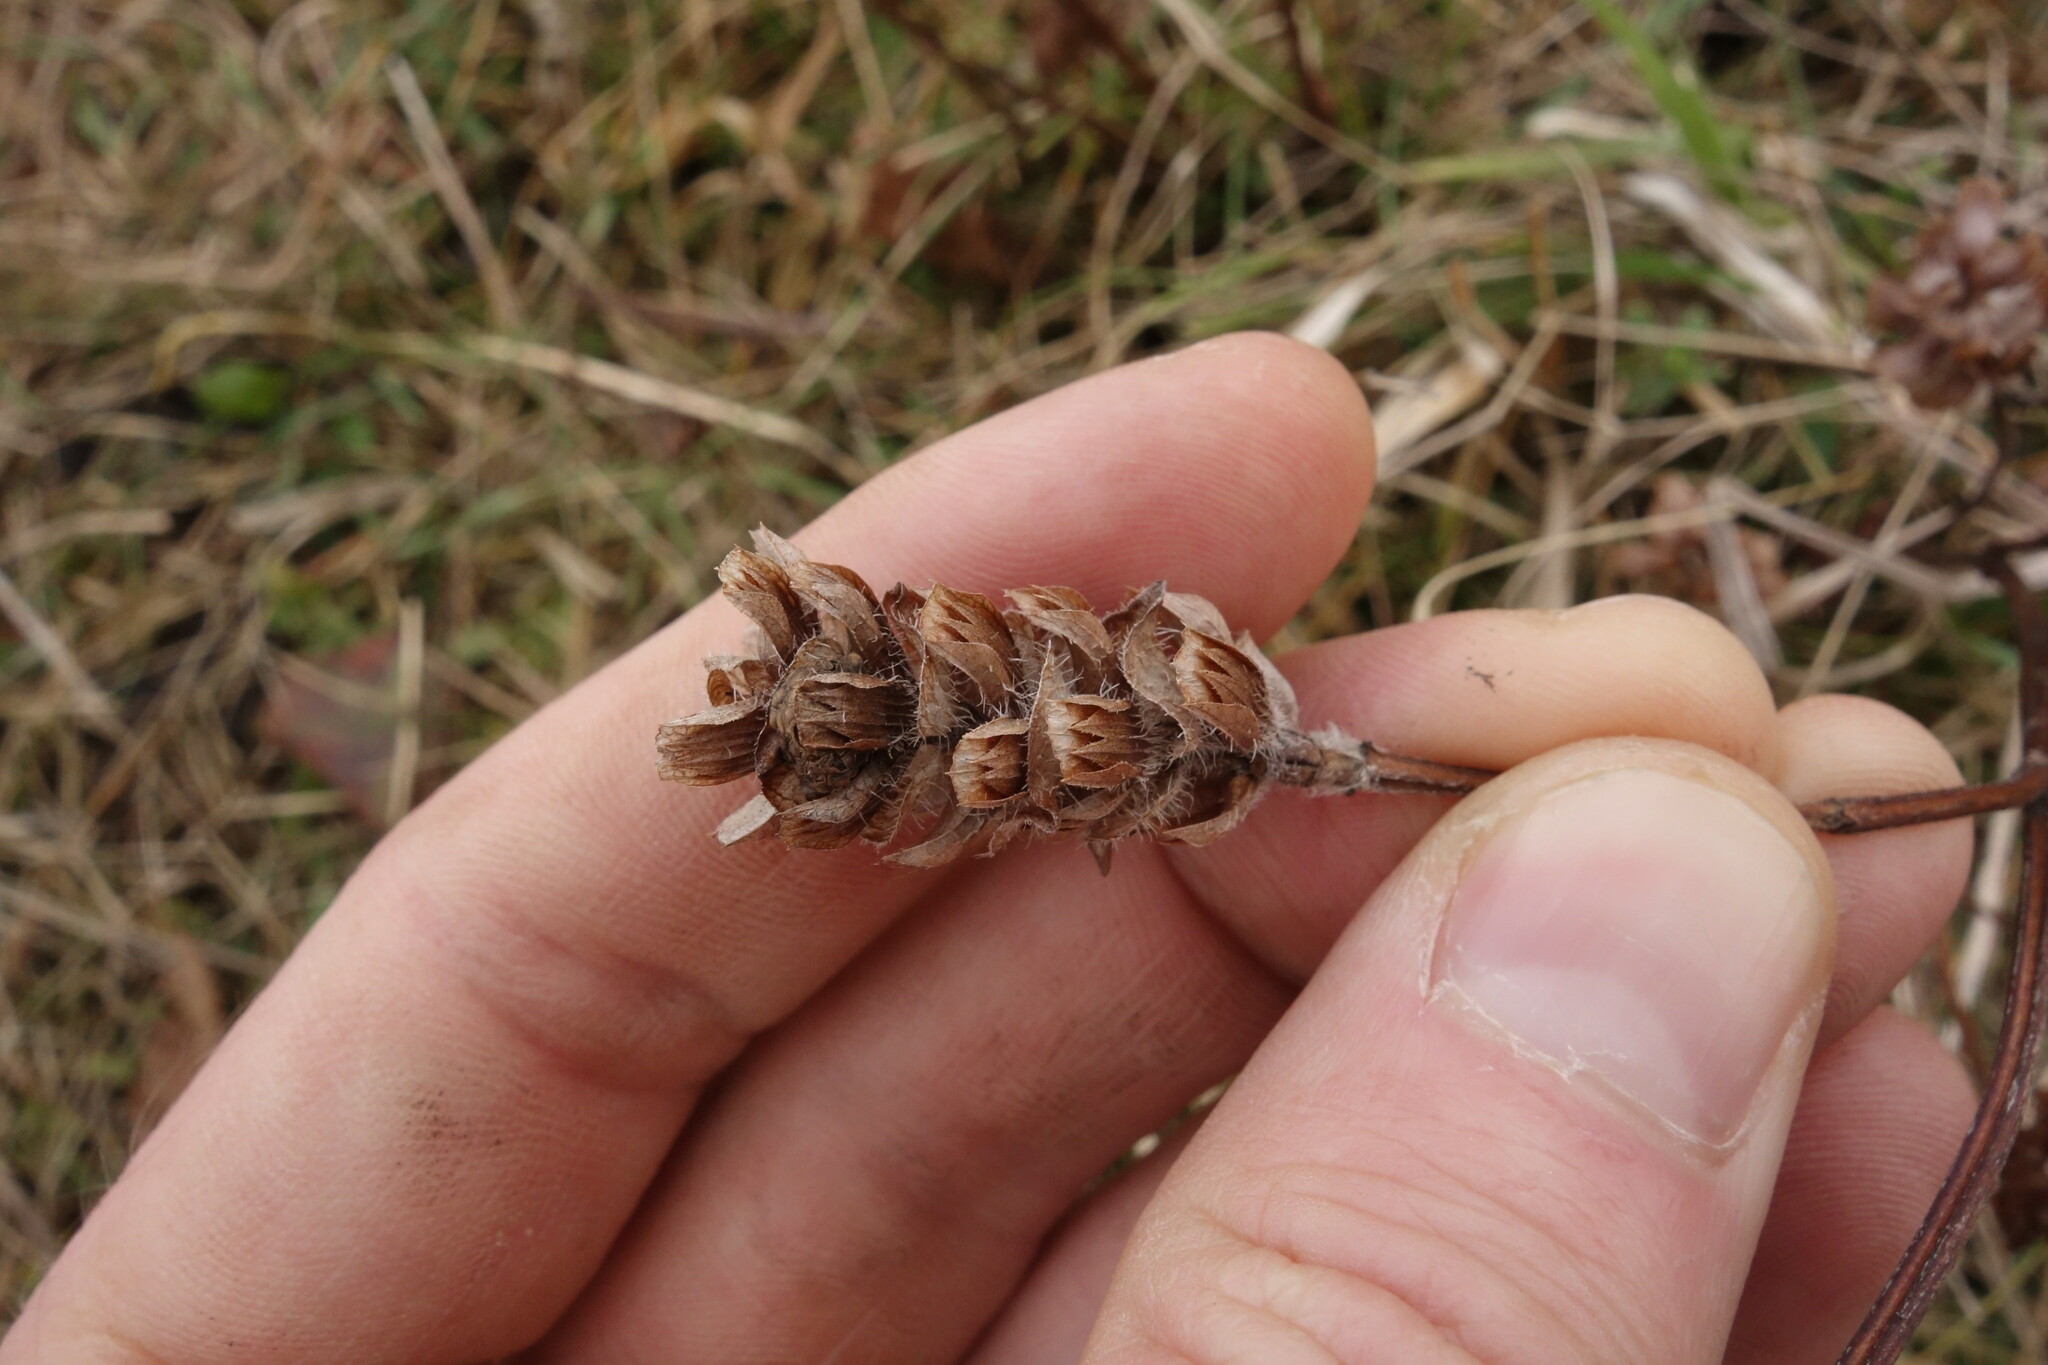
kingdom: Plantae
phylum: Tracheophyta
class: Magnoliopsida
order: Lamiales
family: Lamiaceae
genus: Prunella
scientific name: Prunella vulgaris
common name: Heal-all
